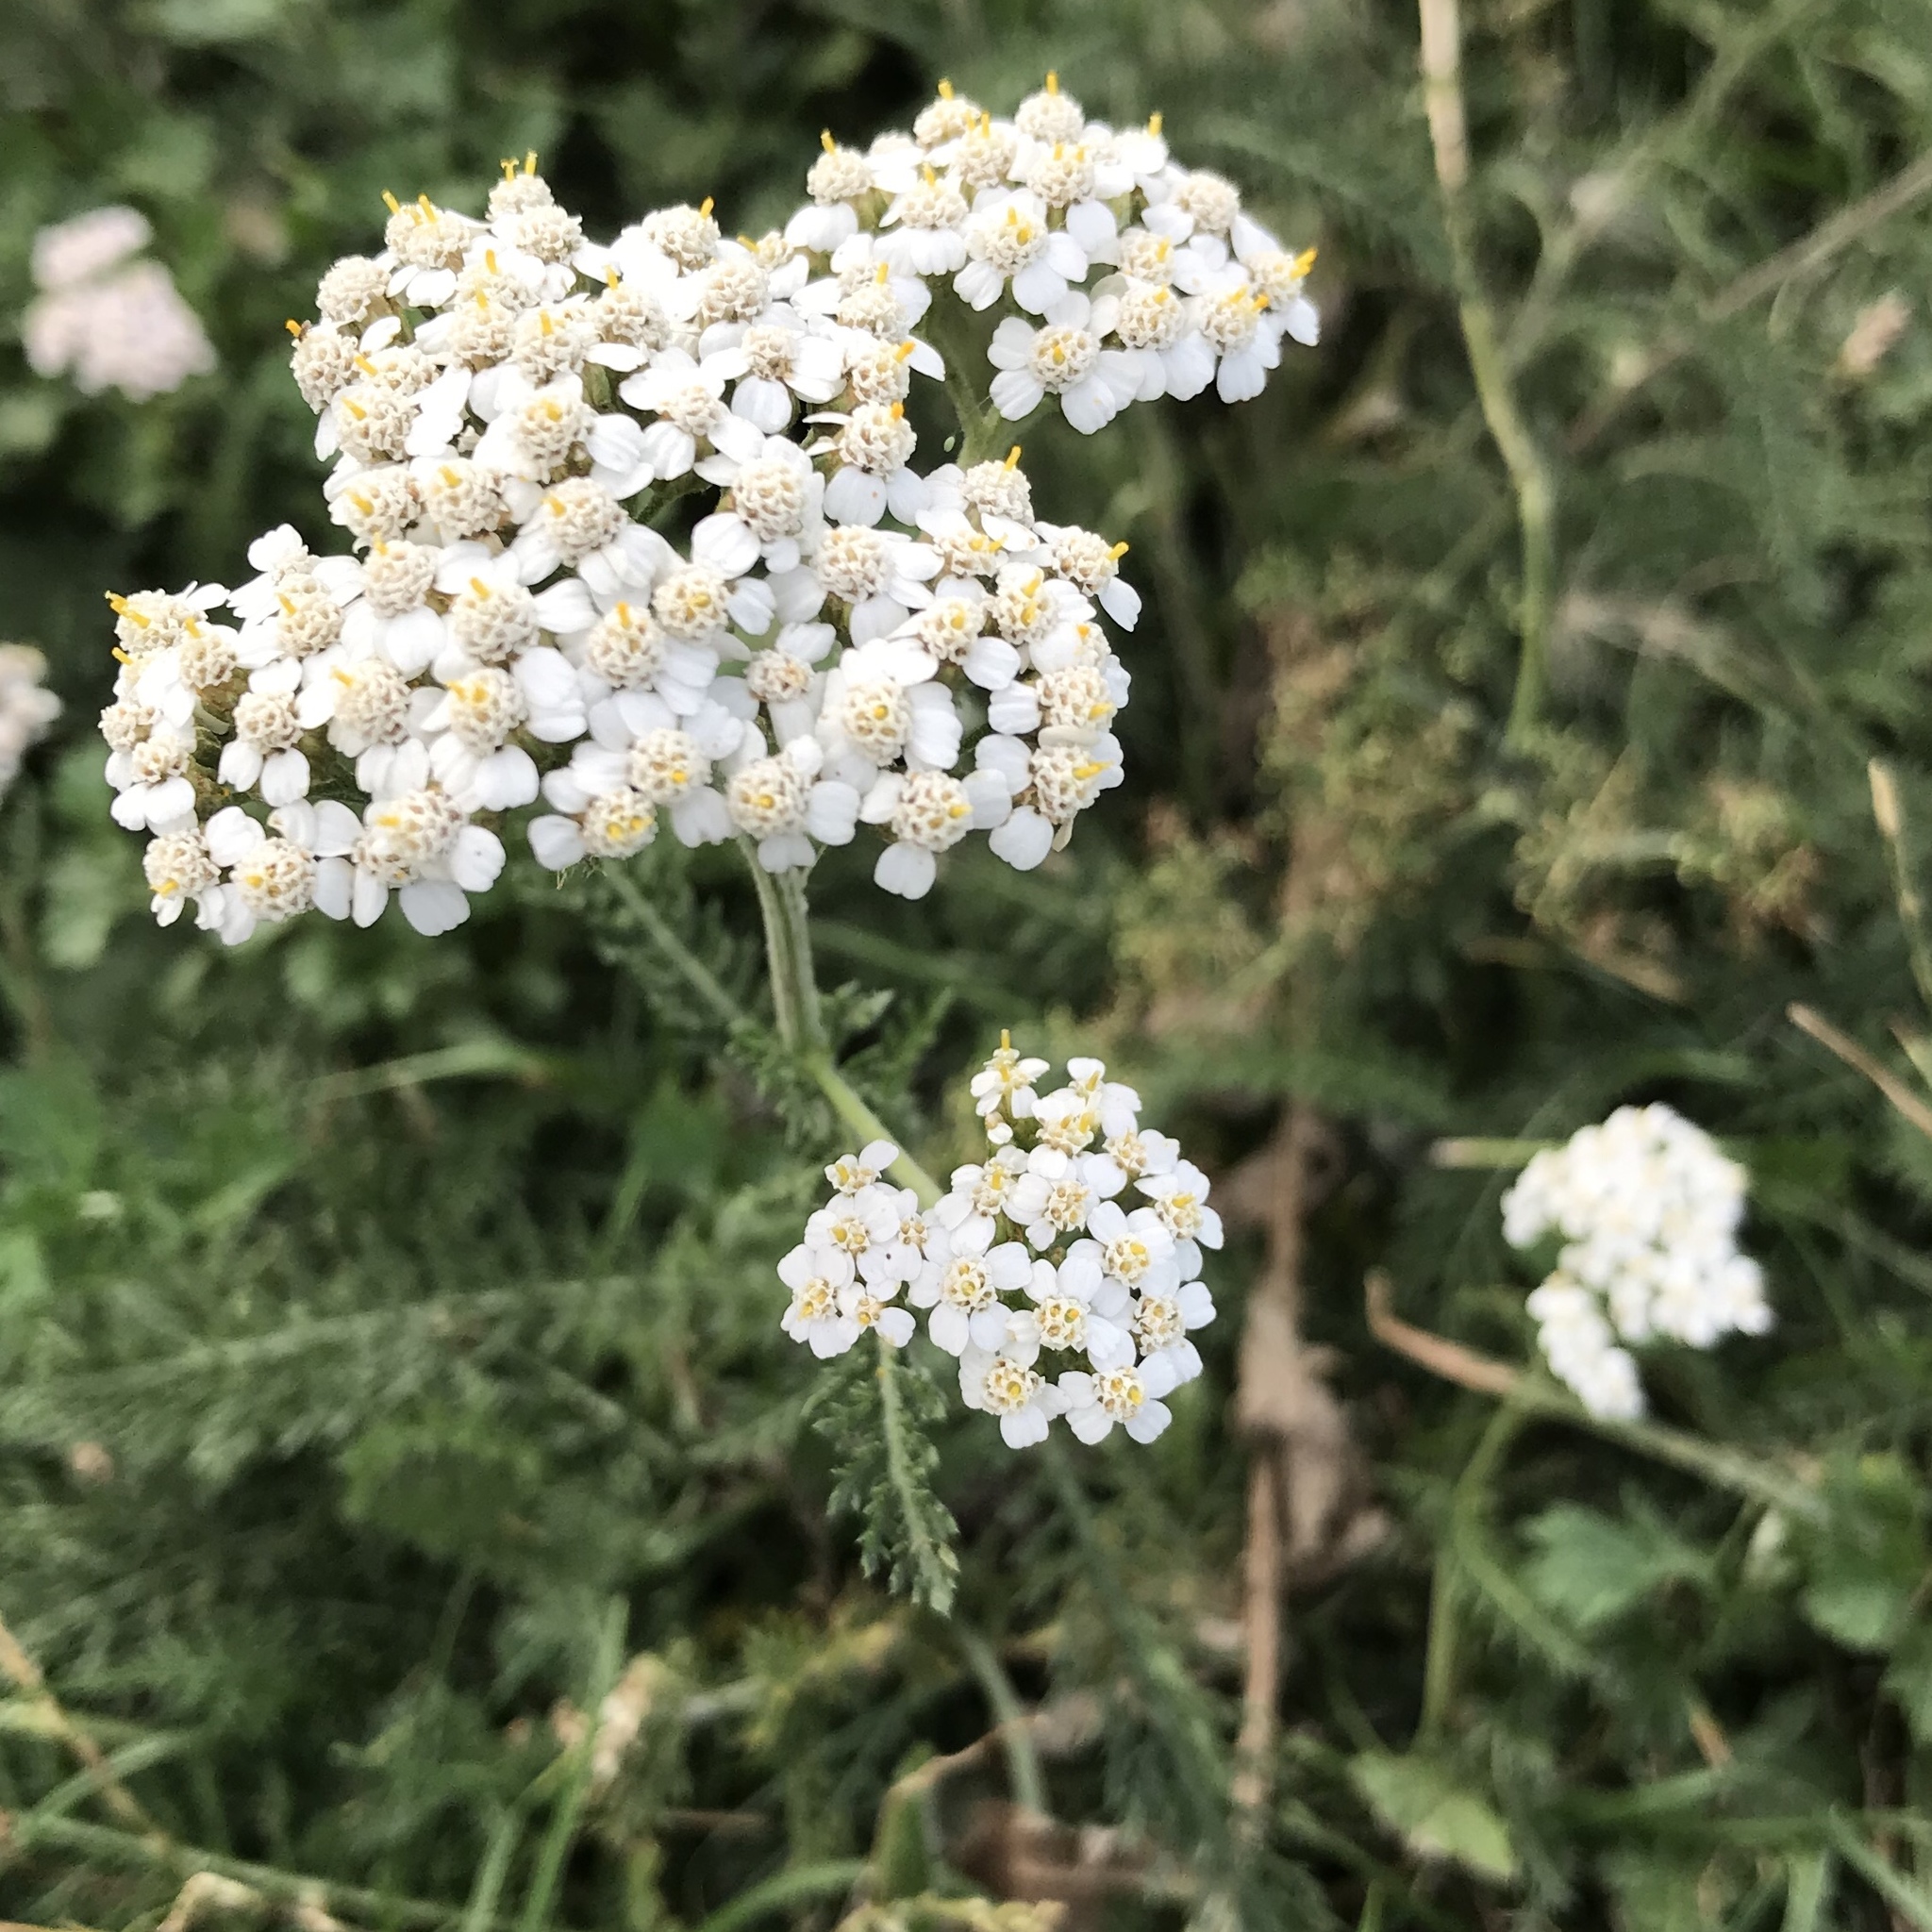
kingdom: Plantae
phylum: Tracheophyta
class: Magnoliopsida
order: Asterales
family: Asteraceae
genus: Achillea
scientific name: Achillea millefolium
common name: Yarrow
